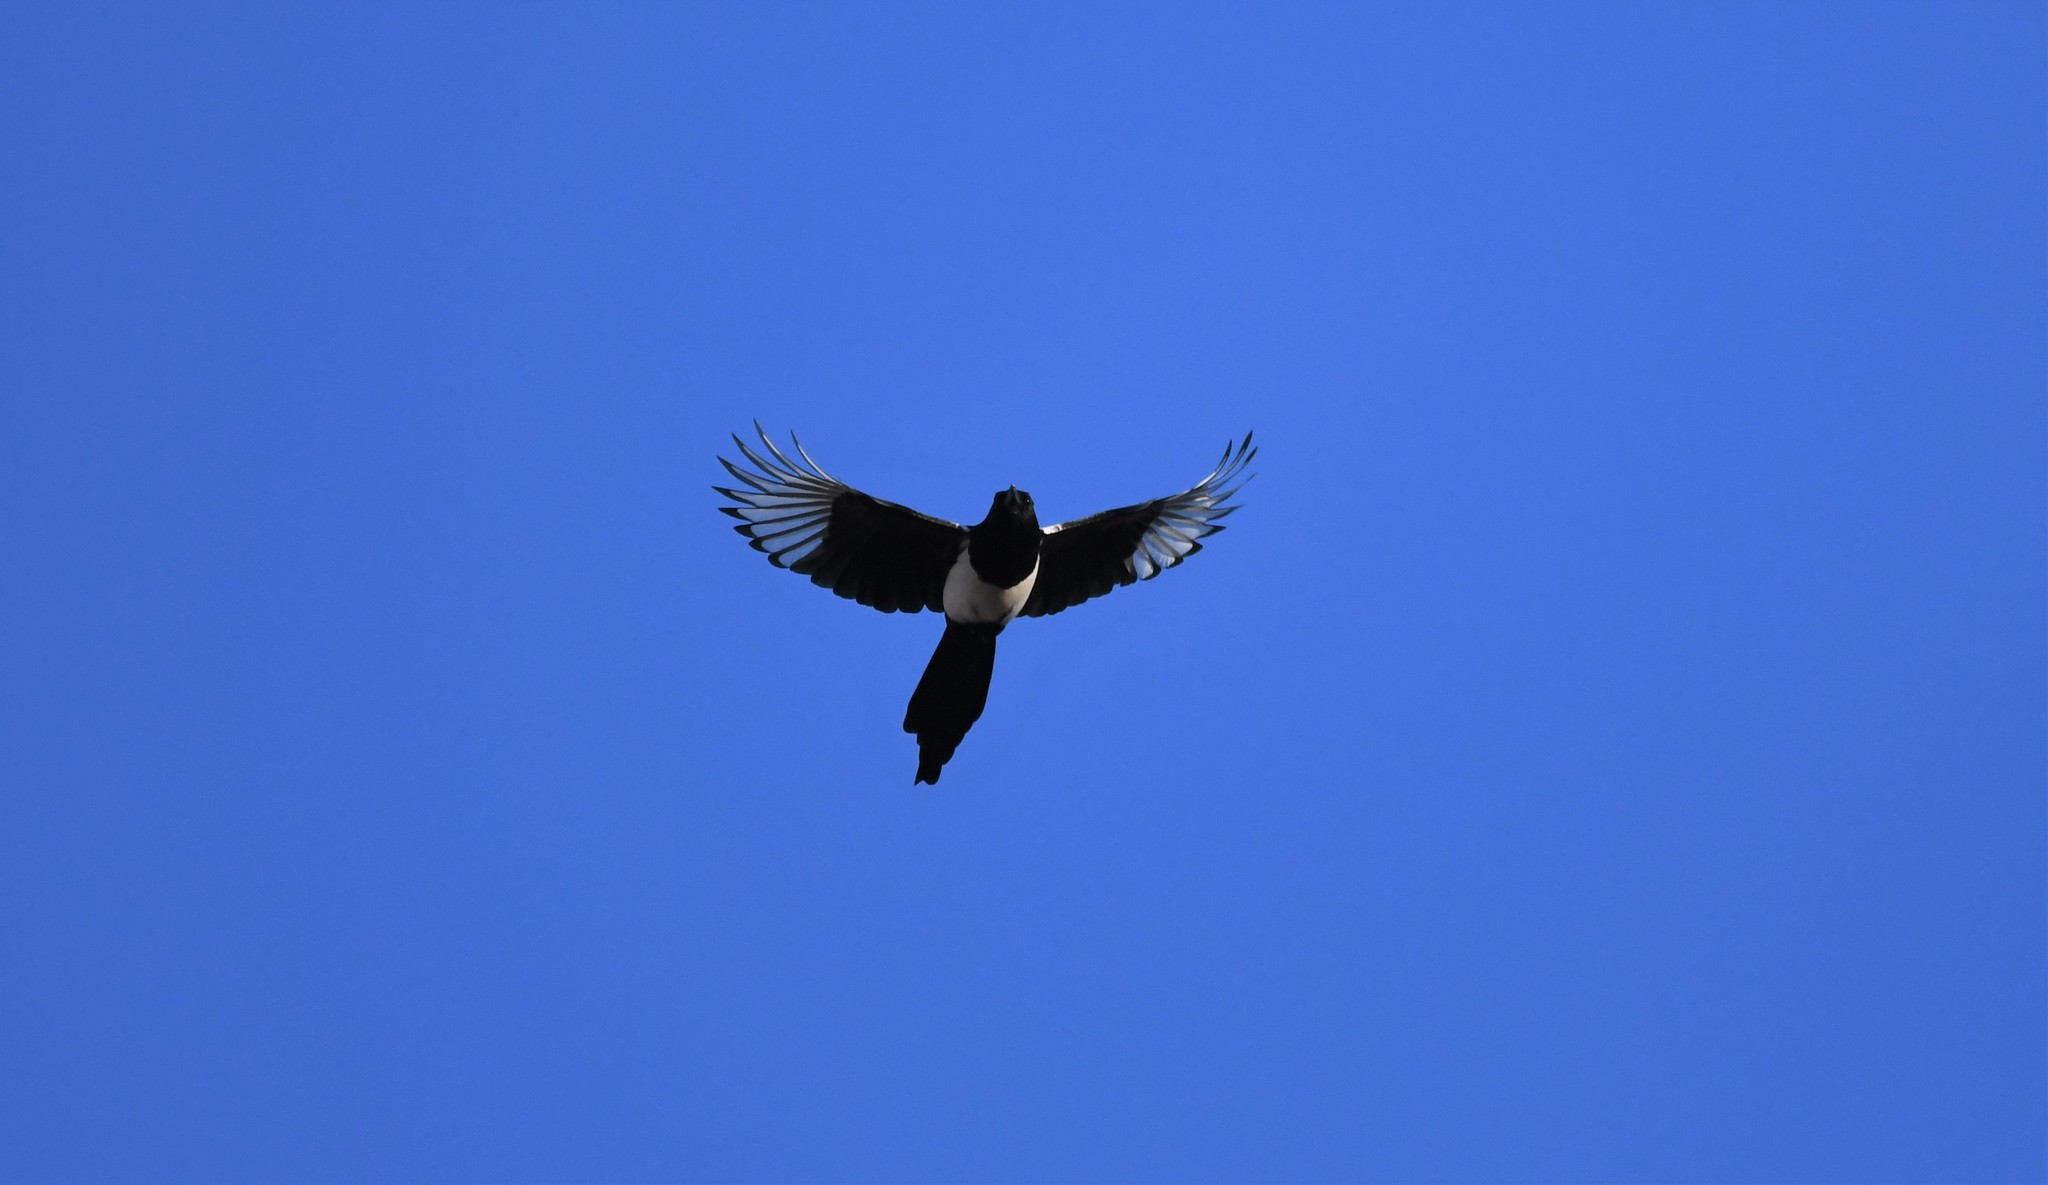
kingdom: Animalia
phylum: Chordata
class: Aves
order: Passeriformes
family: Corvidae
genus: Pica
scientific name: Pica pica
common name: Eurasian magpie
